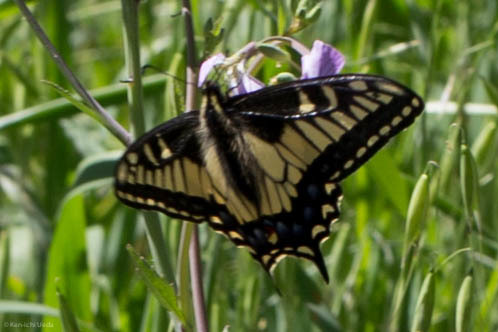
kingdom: Animalia
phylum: Arthropoda
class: Insecta
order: Lepidoptera
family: Papilionidae
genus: Papilio
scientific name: Papilio zelicaon
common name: Anise swallowtail
